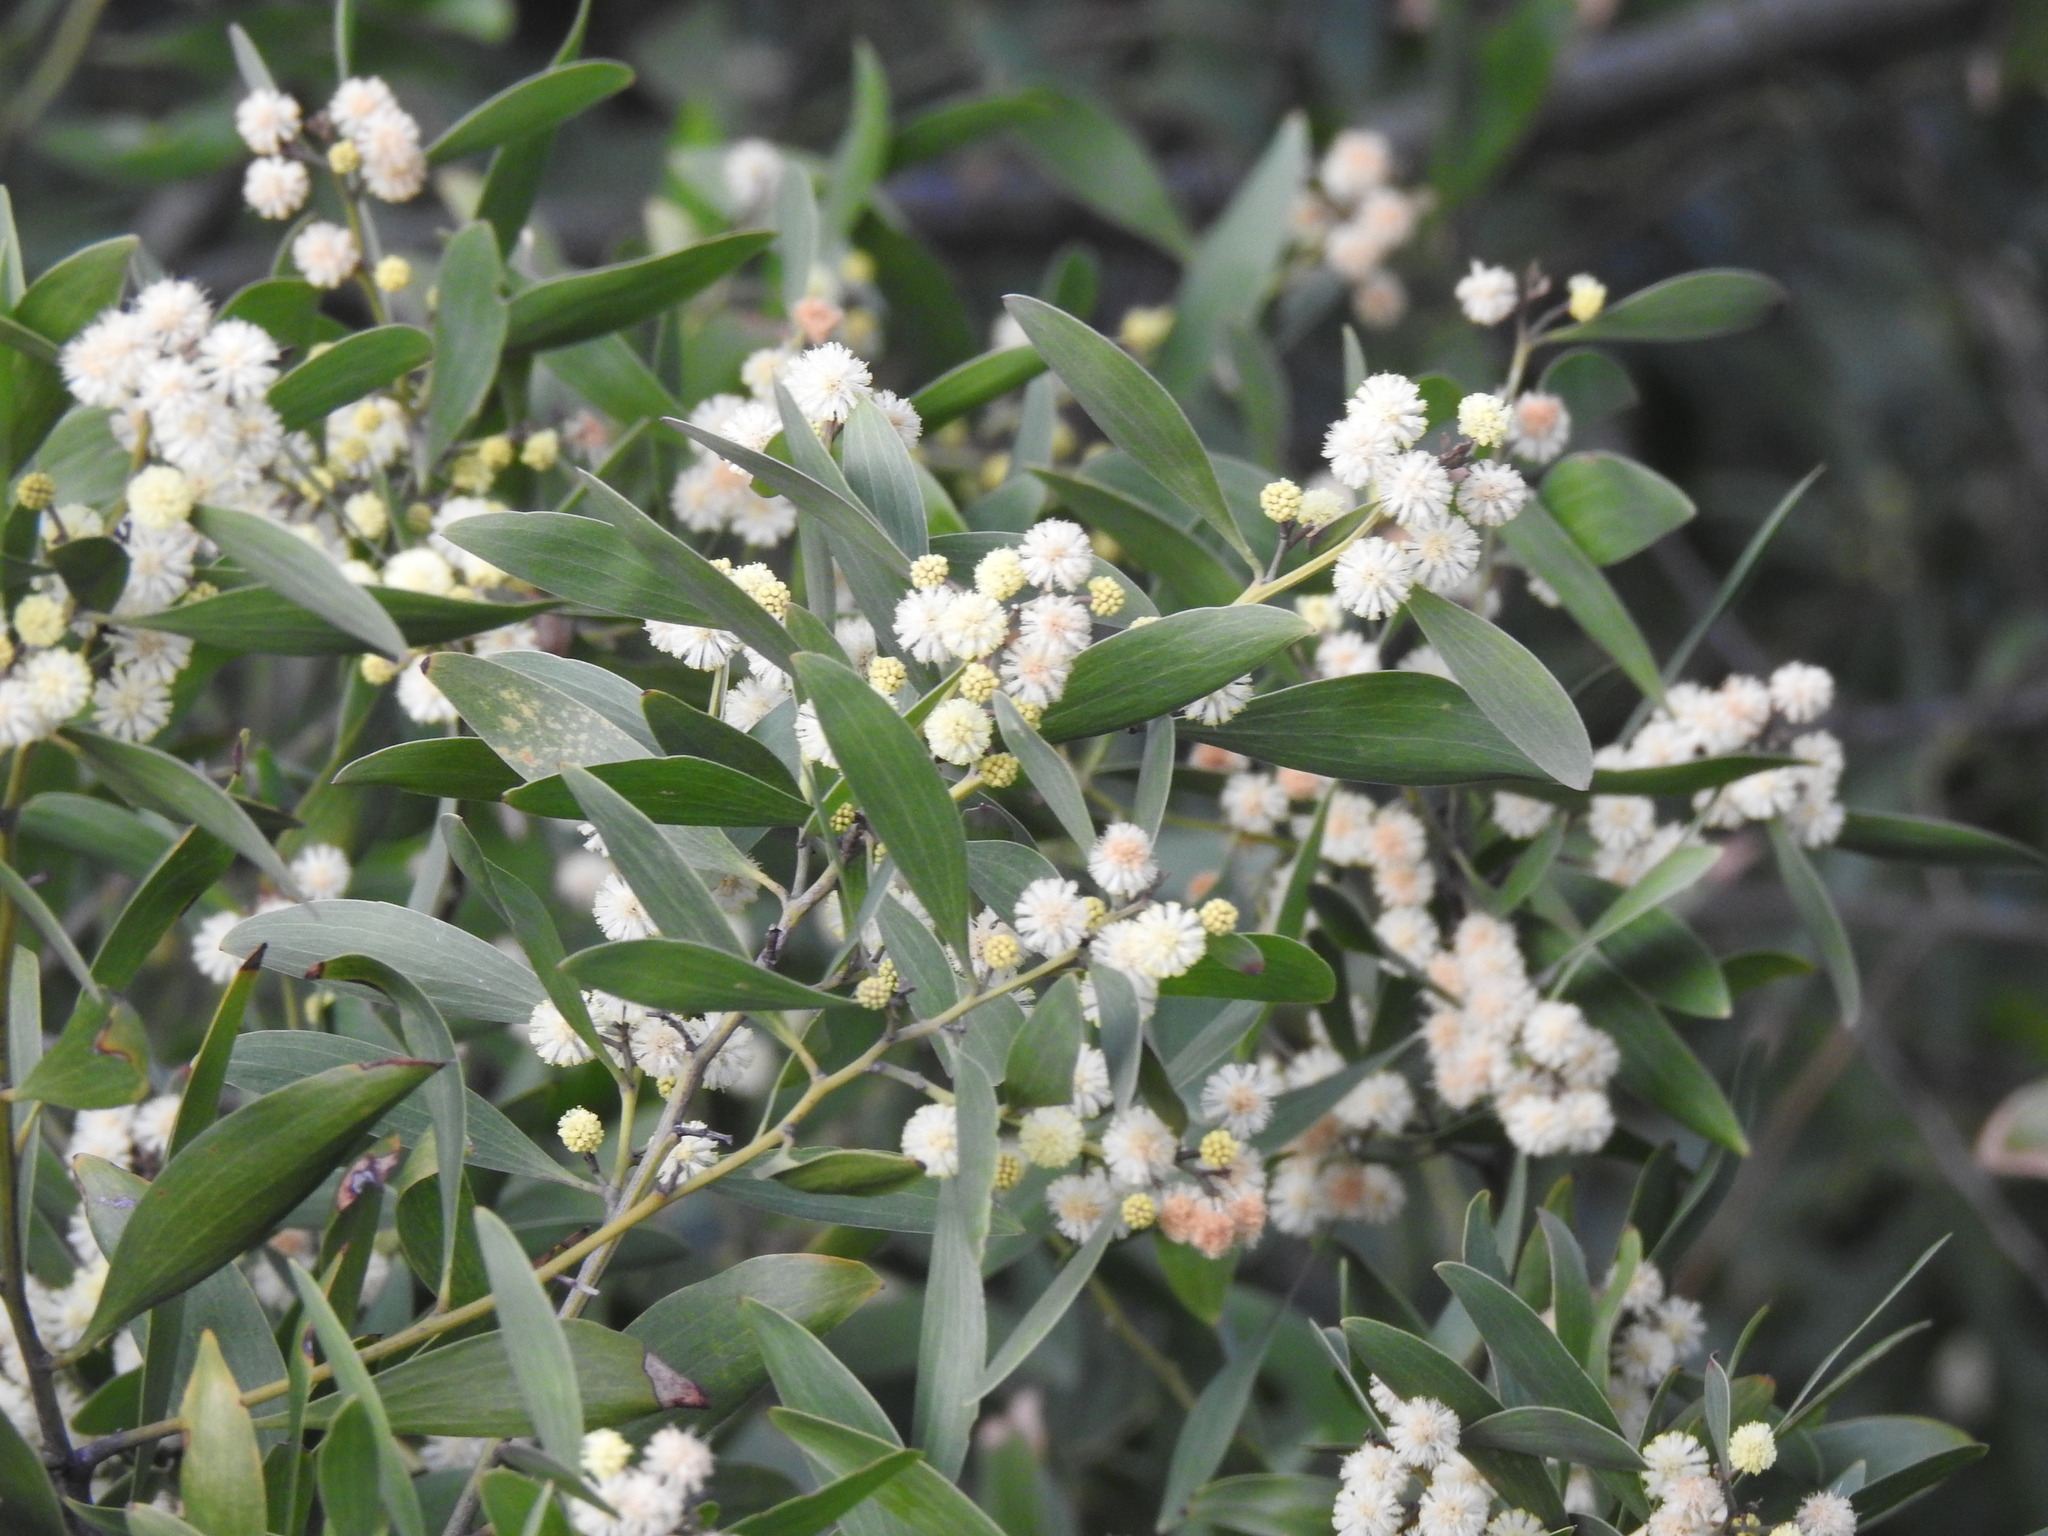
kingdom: Plantae
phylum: Tracheophyta
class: Magnoliopsida
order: Fabales
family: Fabaceae
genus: Acacia
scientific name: Acacia melanoxylon
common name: Blackwood
